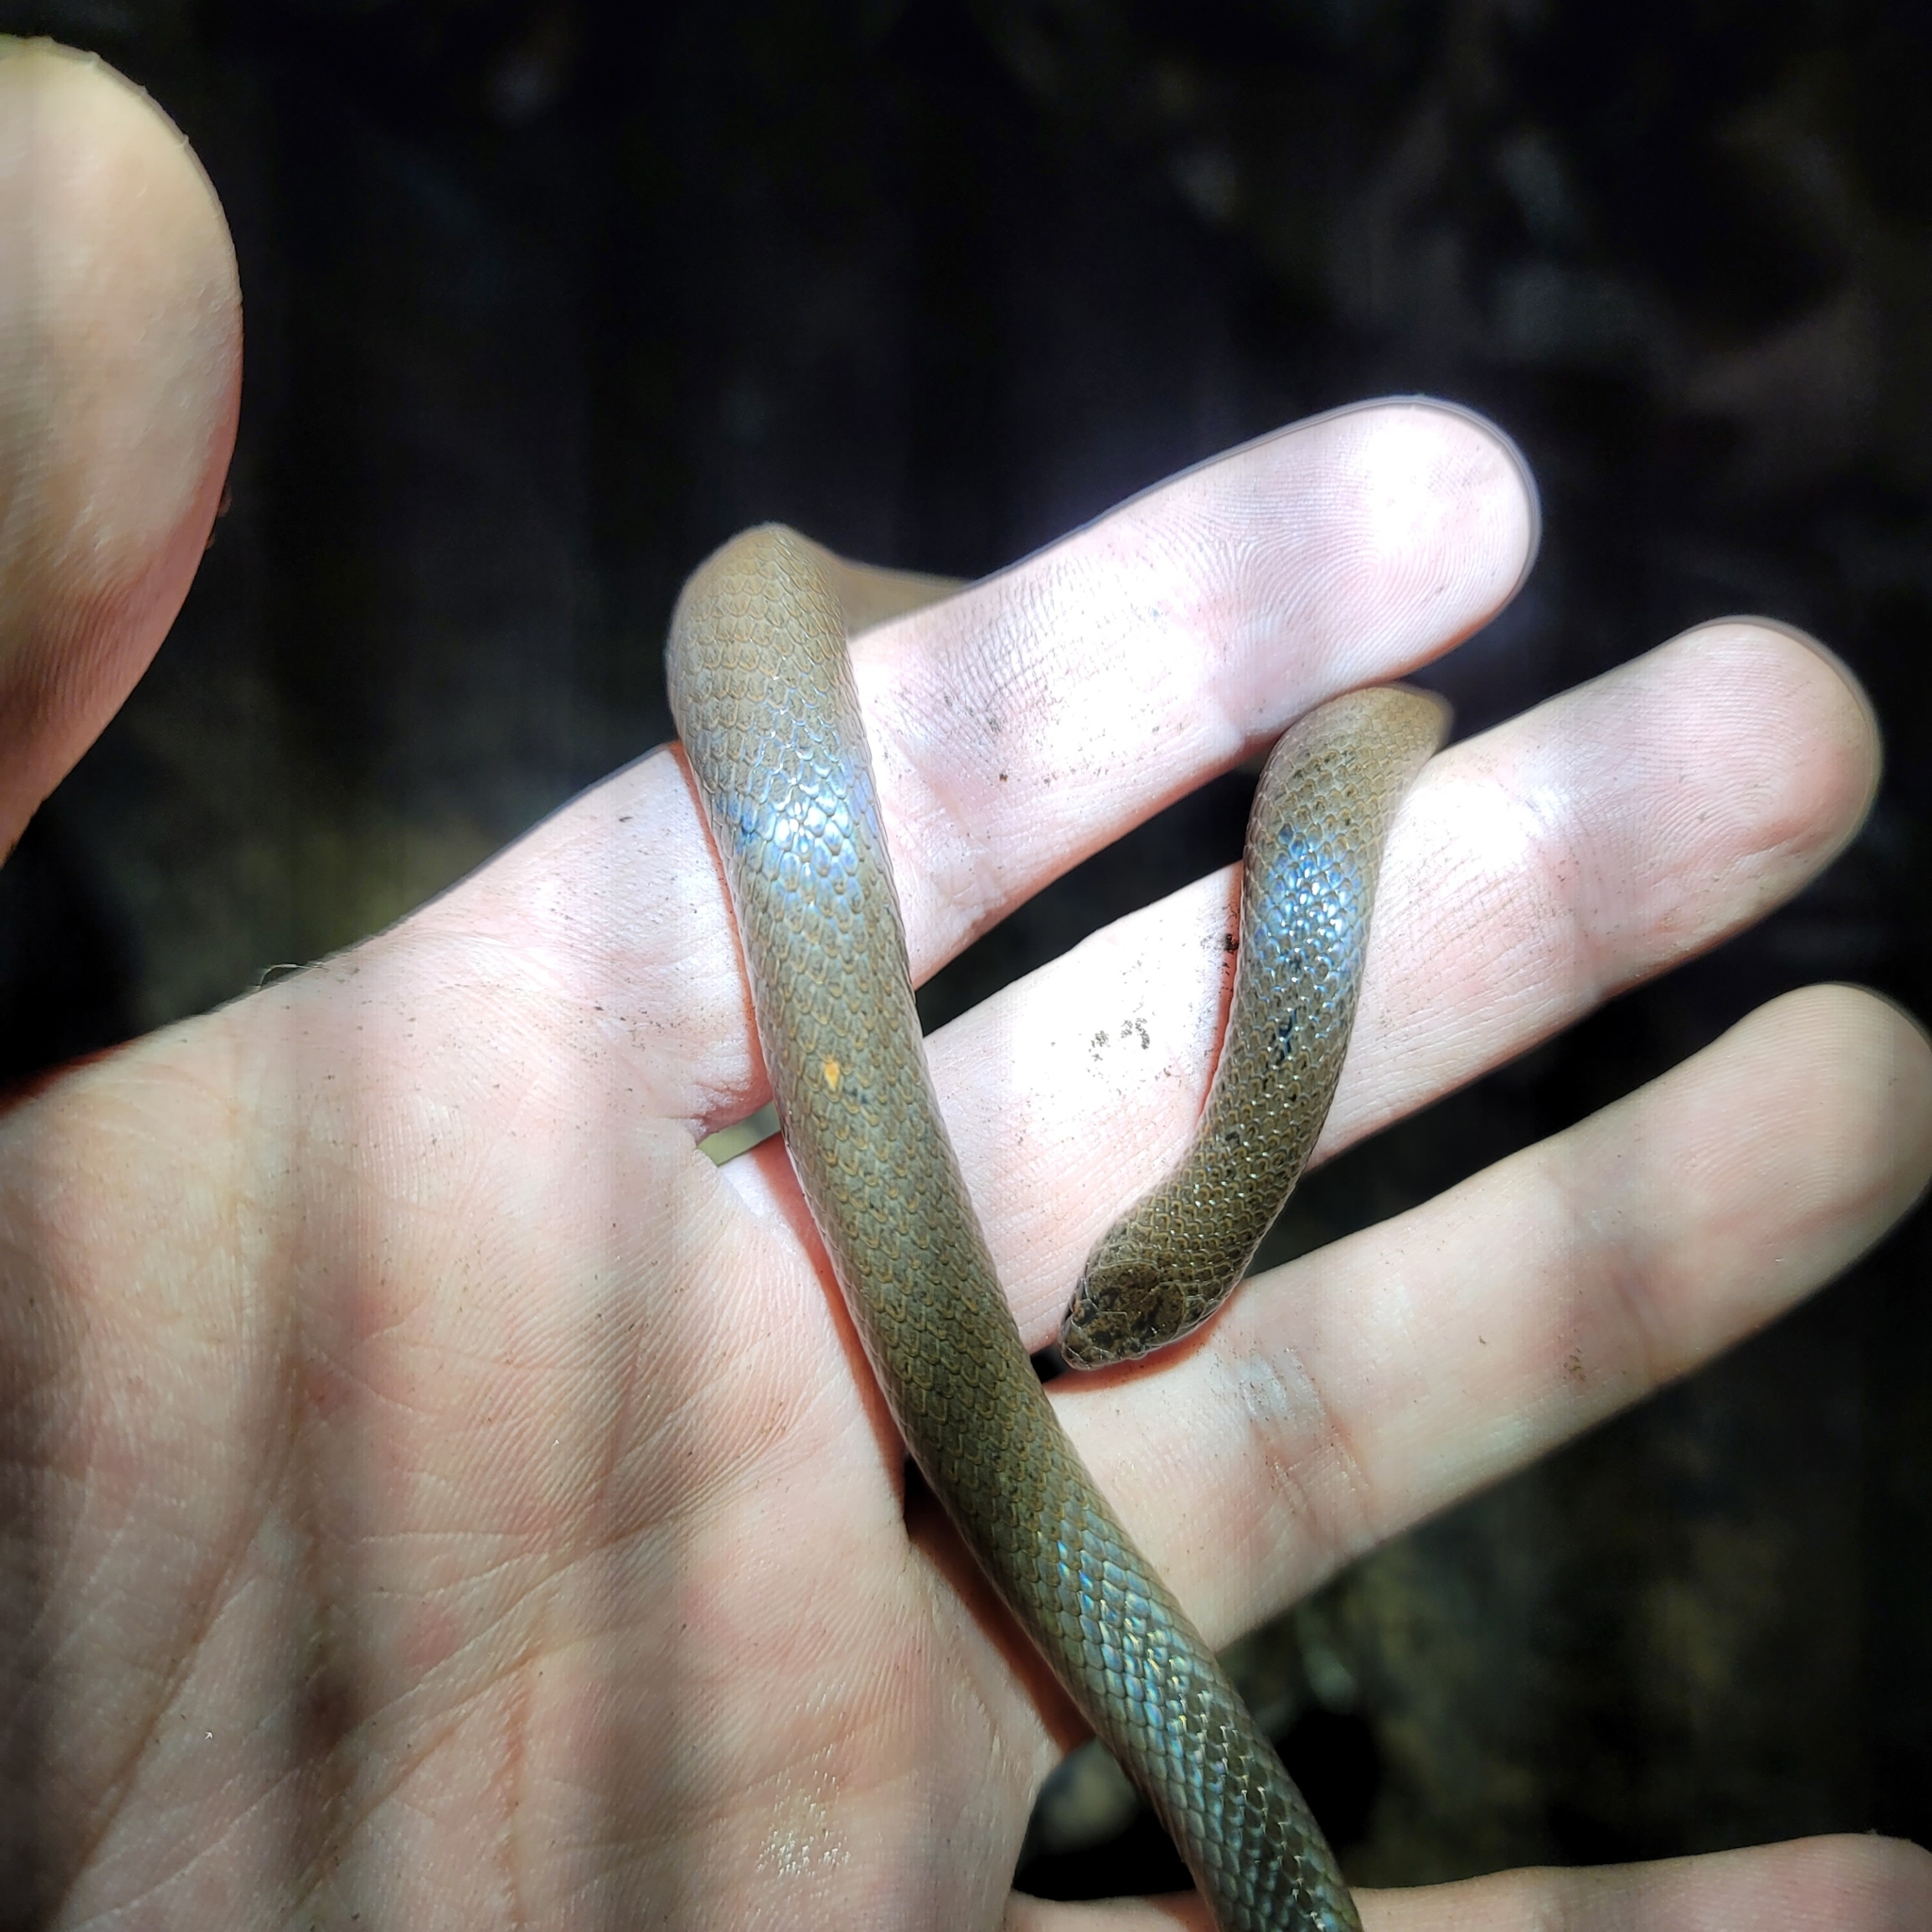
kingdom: Animalia
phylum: Chordata
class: Squamata
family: Colubridae
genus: Virginia
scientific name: Virginia valeriae
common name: Smooth earth snake
